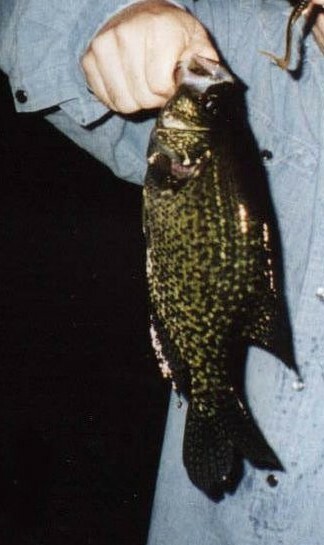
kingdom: Animalia
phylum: Chordata
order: Perciformes
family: Centrarchidae
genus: Pomoxis
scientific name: Pomoxis nigromaculatus
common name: Black crappie
